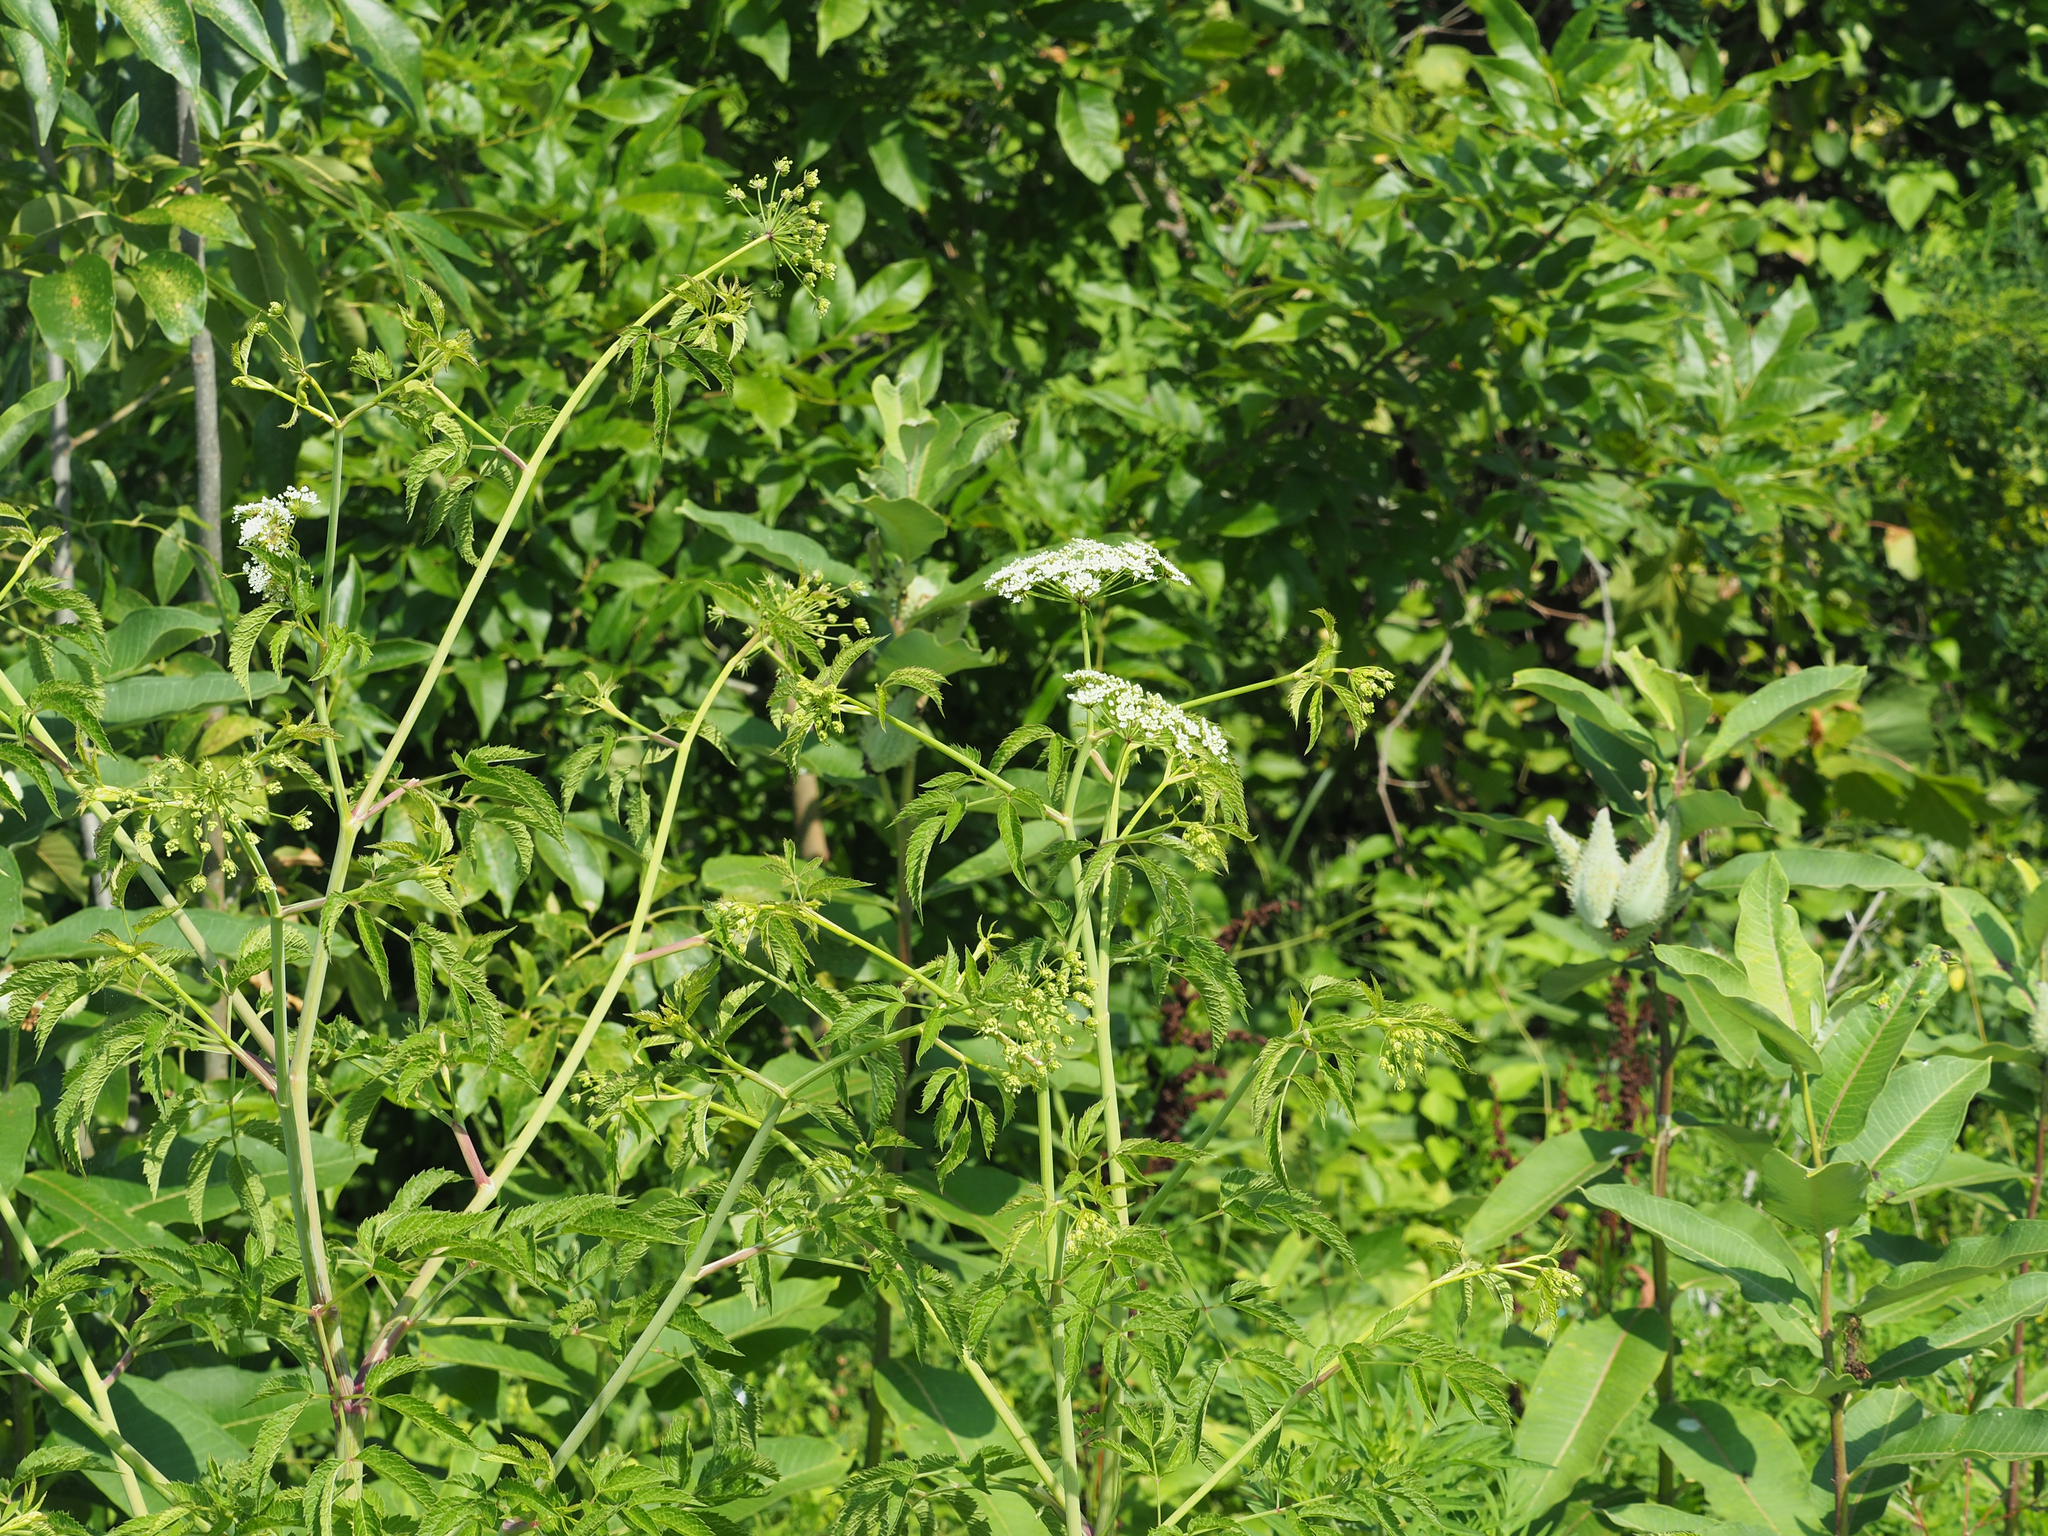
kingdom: Plantae
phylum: Tracheophyta
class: Magnoliopsida
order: Apiales
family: Apiaceae
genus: Cicuta
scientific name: Cicuta maculata
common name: Spotted cowbane
